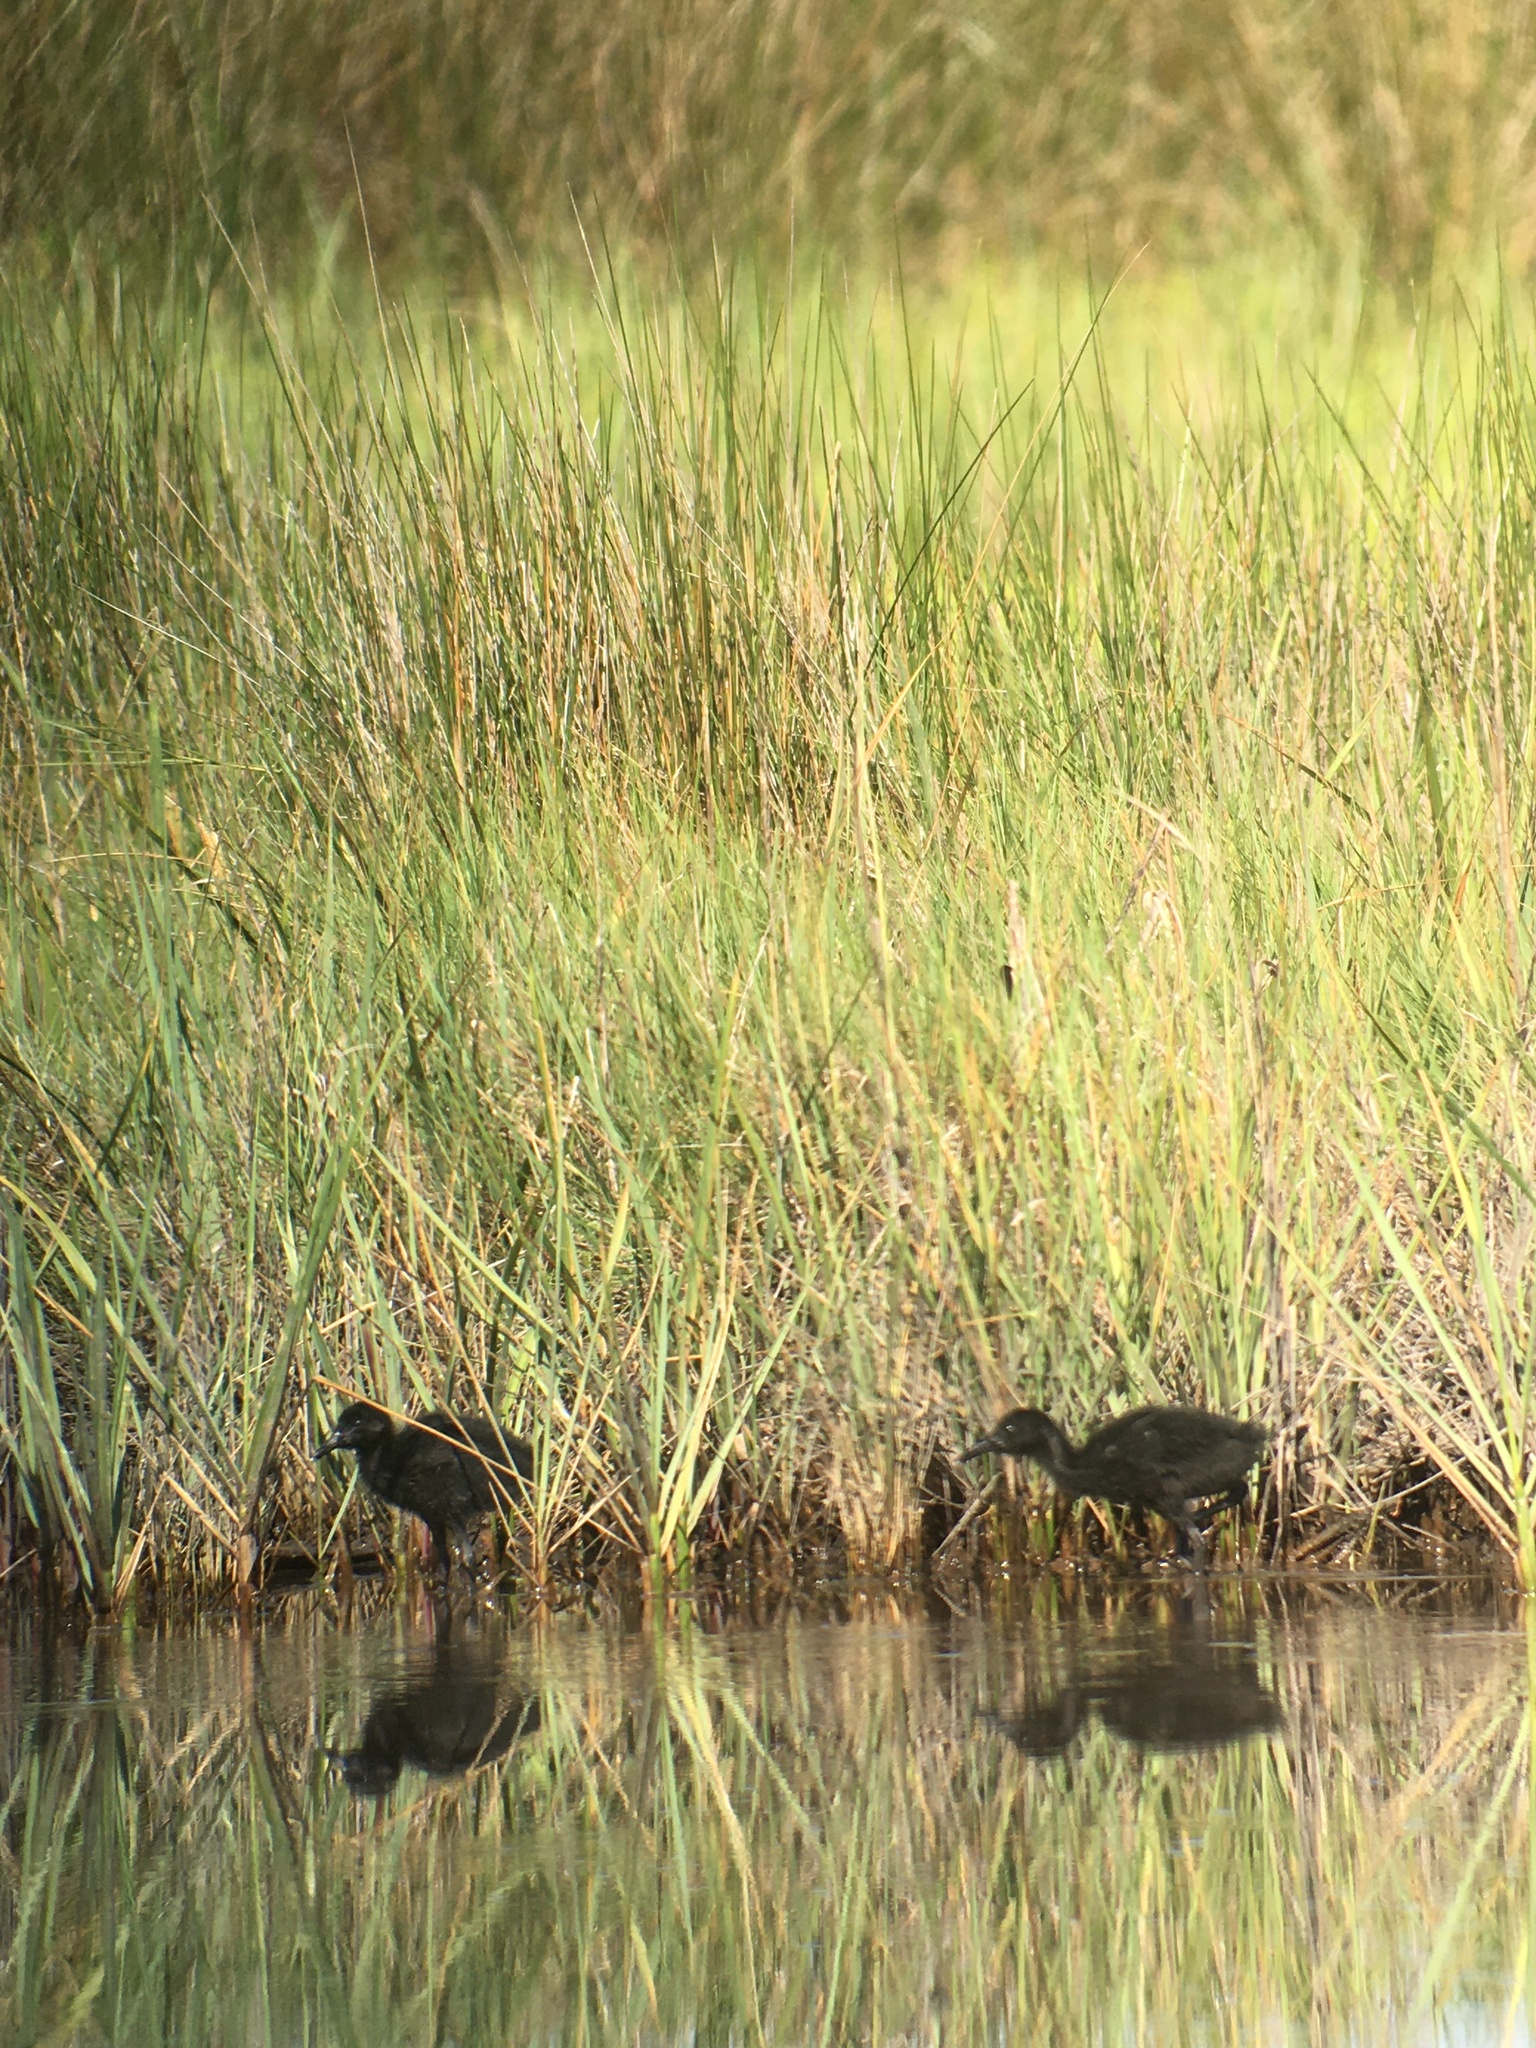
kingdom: Animalia
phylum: Chordata
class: Aves
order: Gruiformes
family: Rallidae
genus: Rallus
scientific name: Rallus crepitans
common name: Clapper rail
